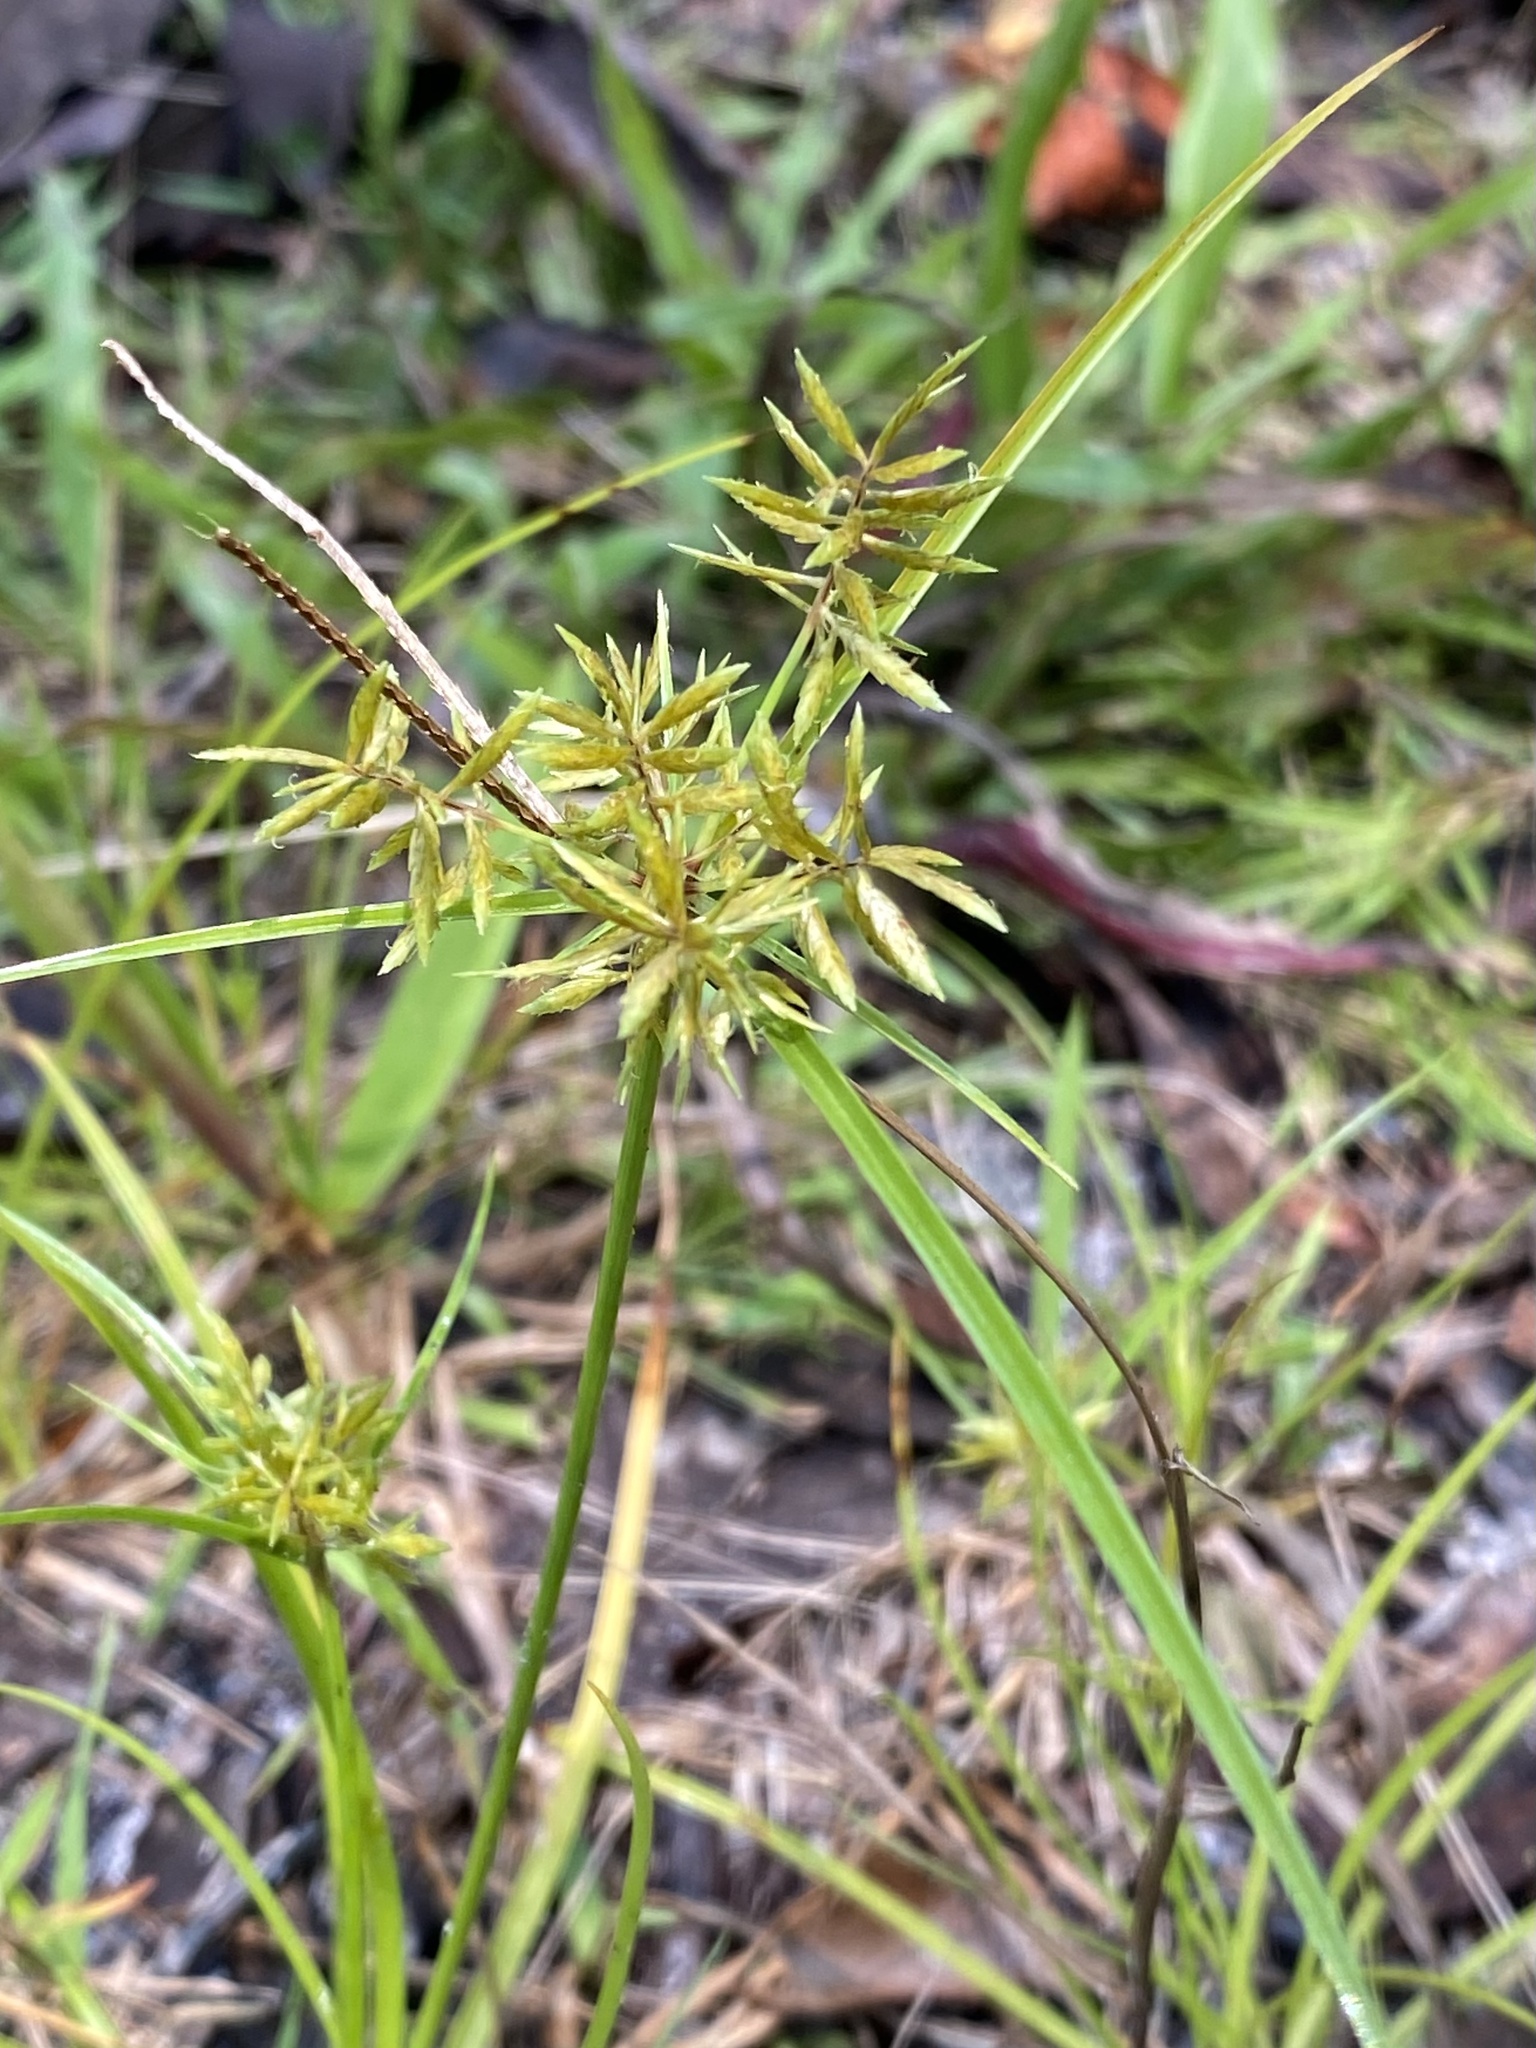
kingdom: Plantae
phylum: Tracheophyta
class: Liliopsida
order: Poales
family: Cyperaceae
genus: Cyperus
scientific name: Cyperus polystachyos
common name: Bunchy flat sedge
